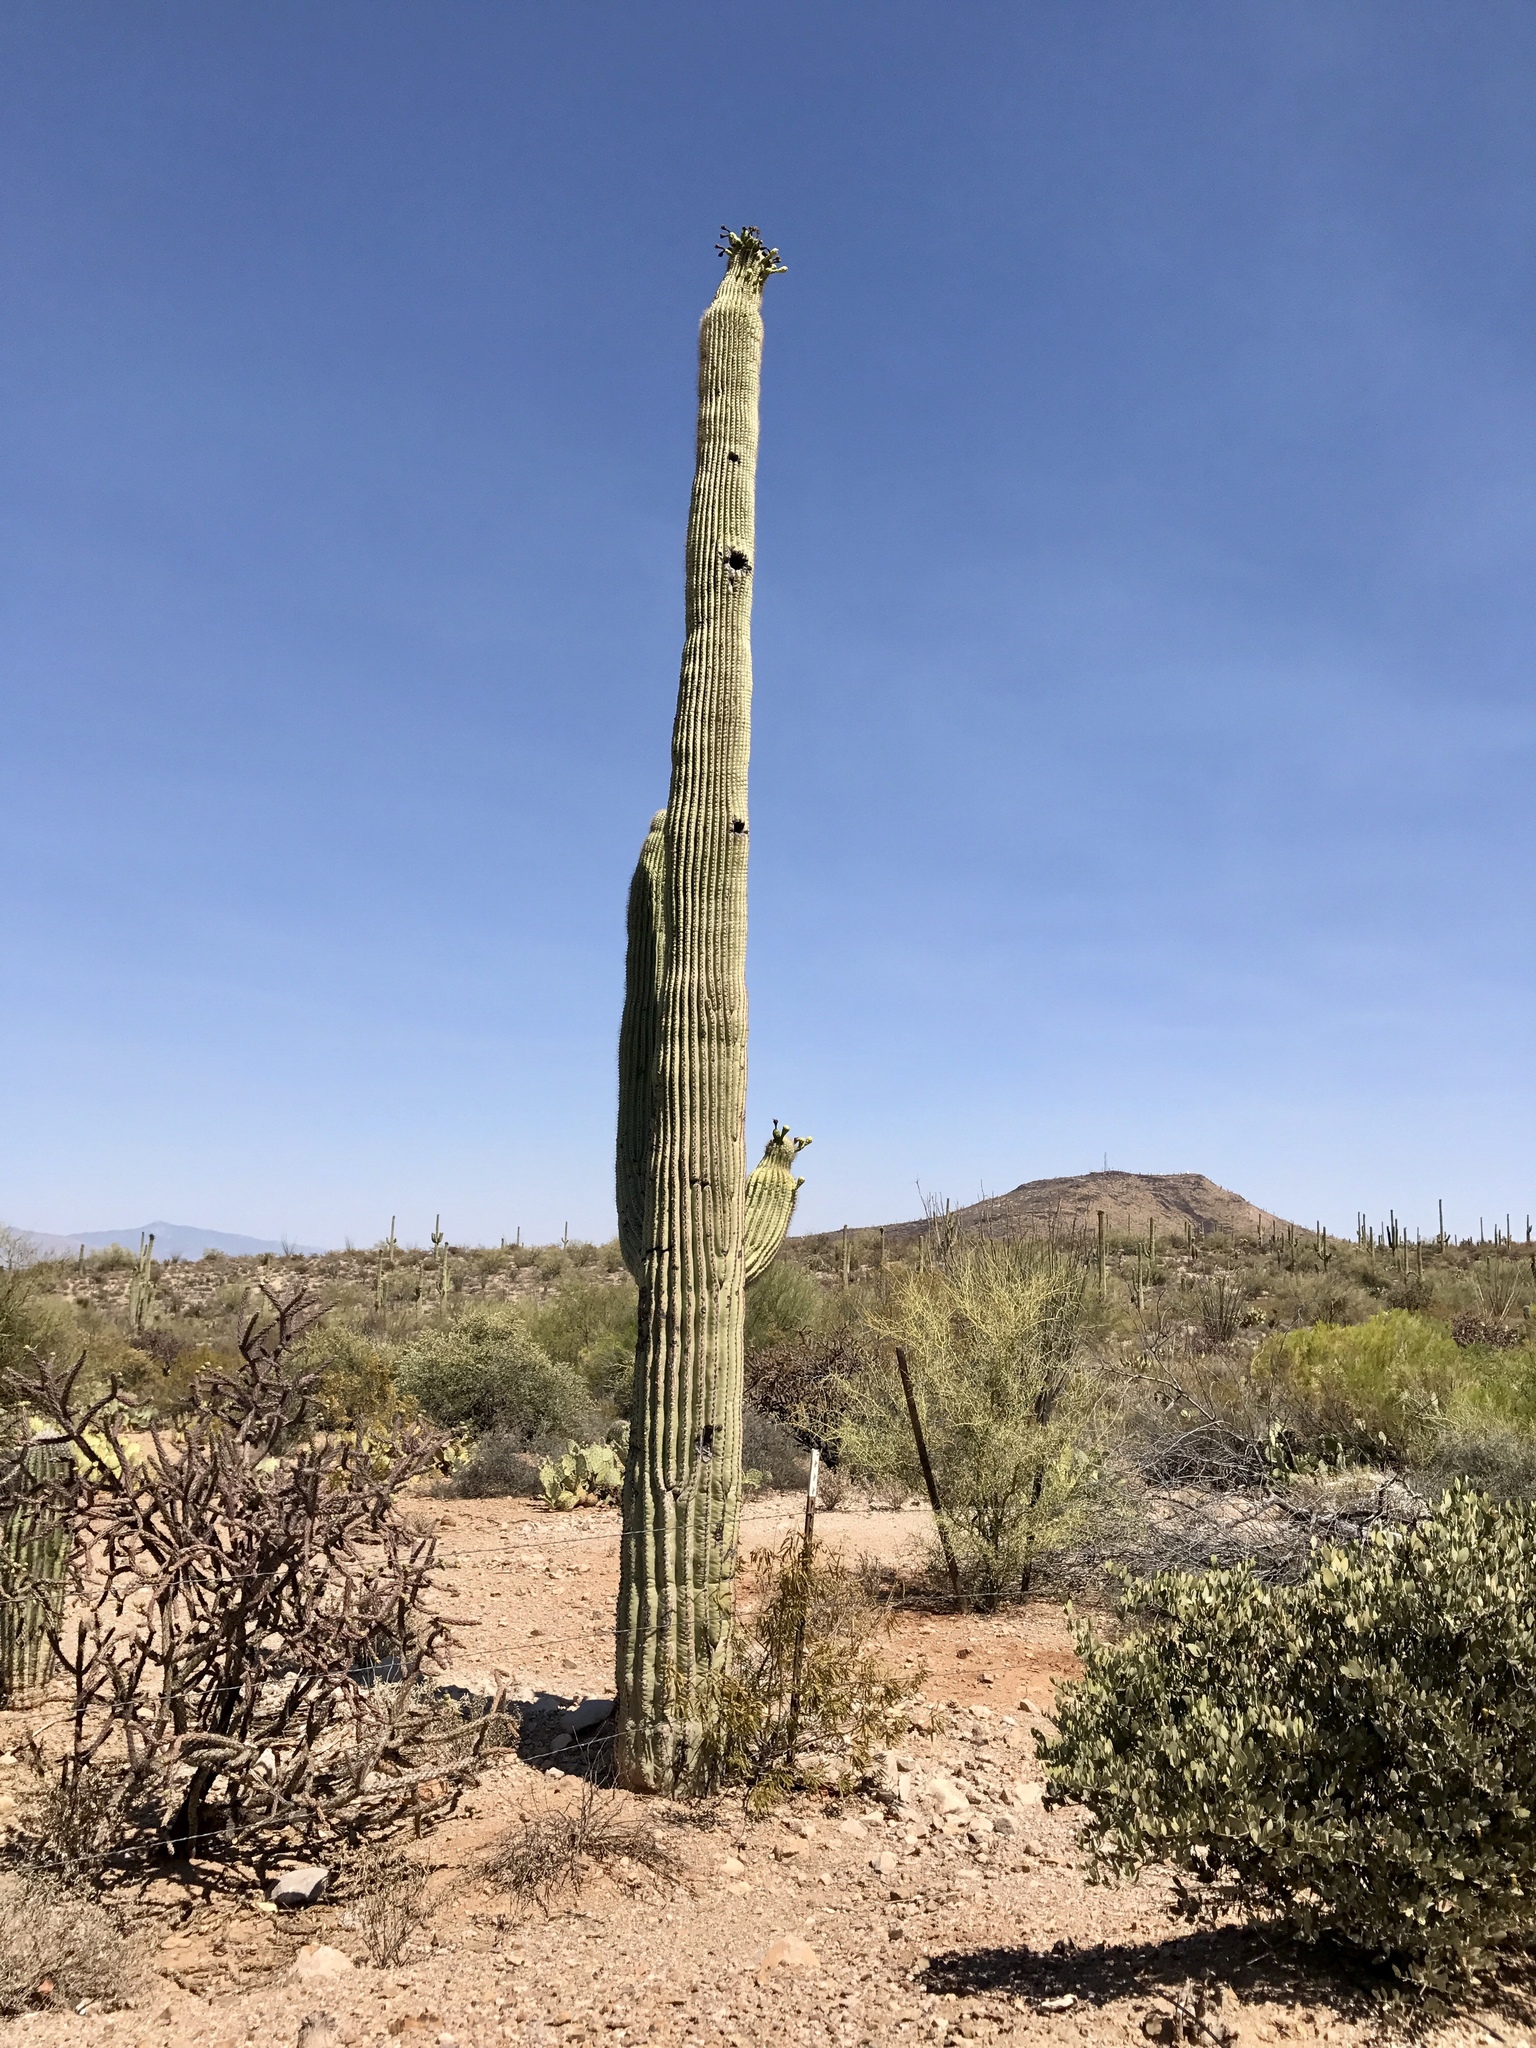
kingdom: Plantae
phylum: Tracheophyta
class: Magnoliopsida
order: Caryophyllales
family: Cactaceae
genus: Carnegiea
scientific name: Carnegiea gigantea
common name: Saguaro
